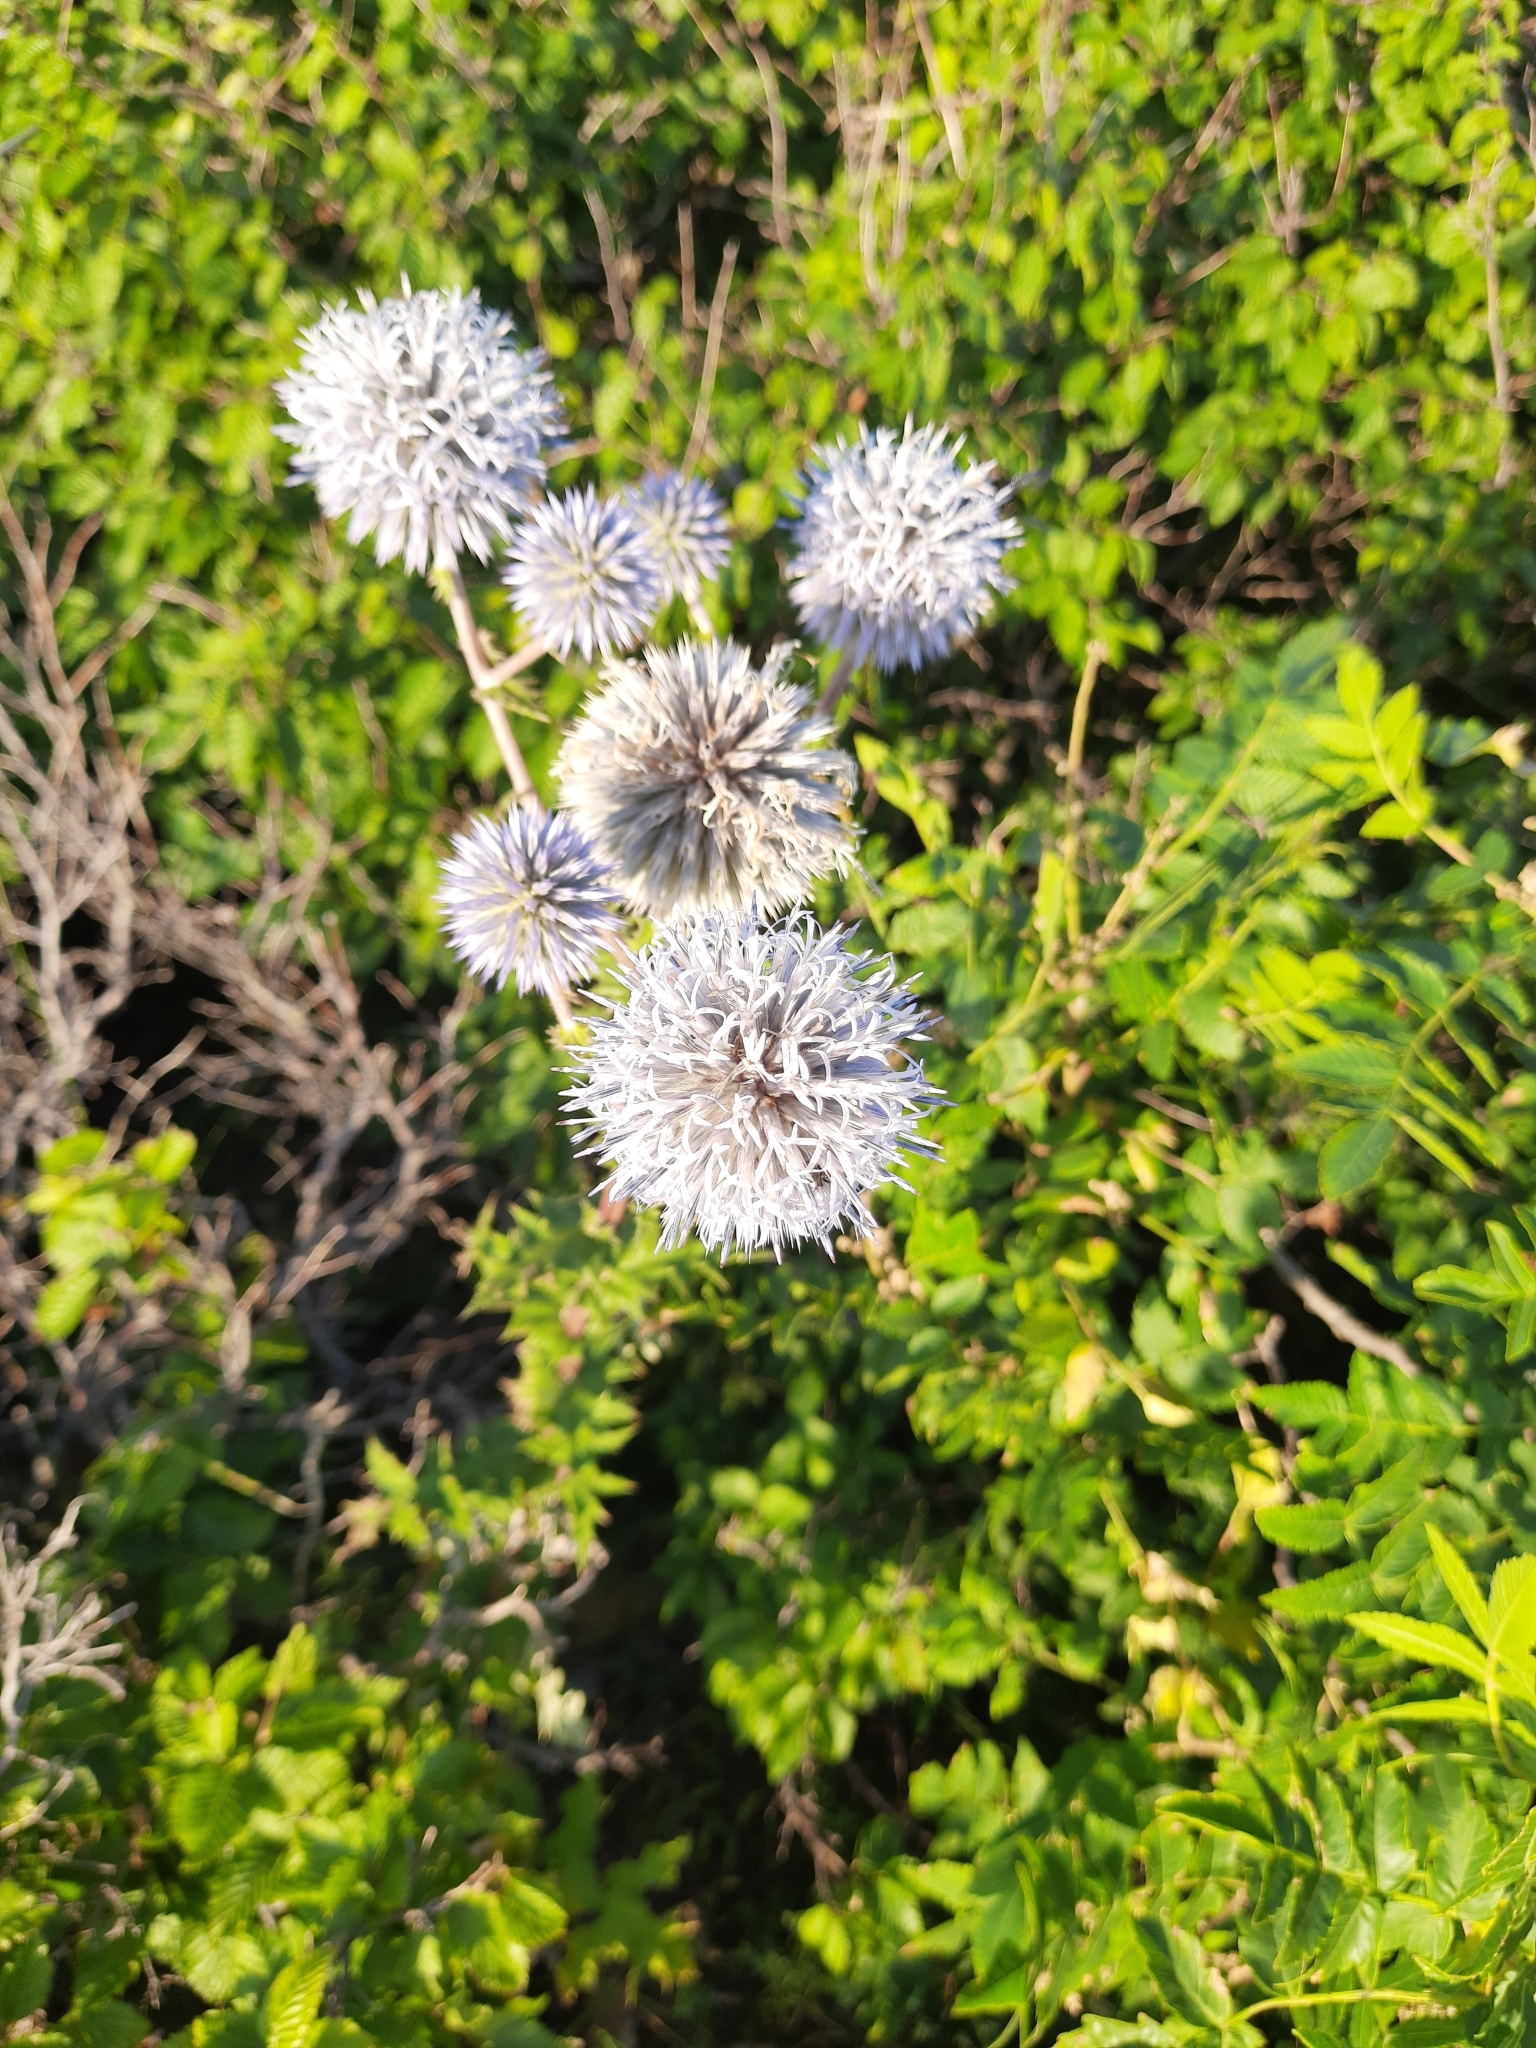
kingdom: Plantae
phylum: Tracheophyta
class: Magnoliopsida
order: Asterales
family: Asteraceae
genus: Echinops
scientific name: Echinops sphaerocephalus
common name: Glandular globe-thistle
